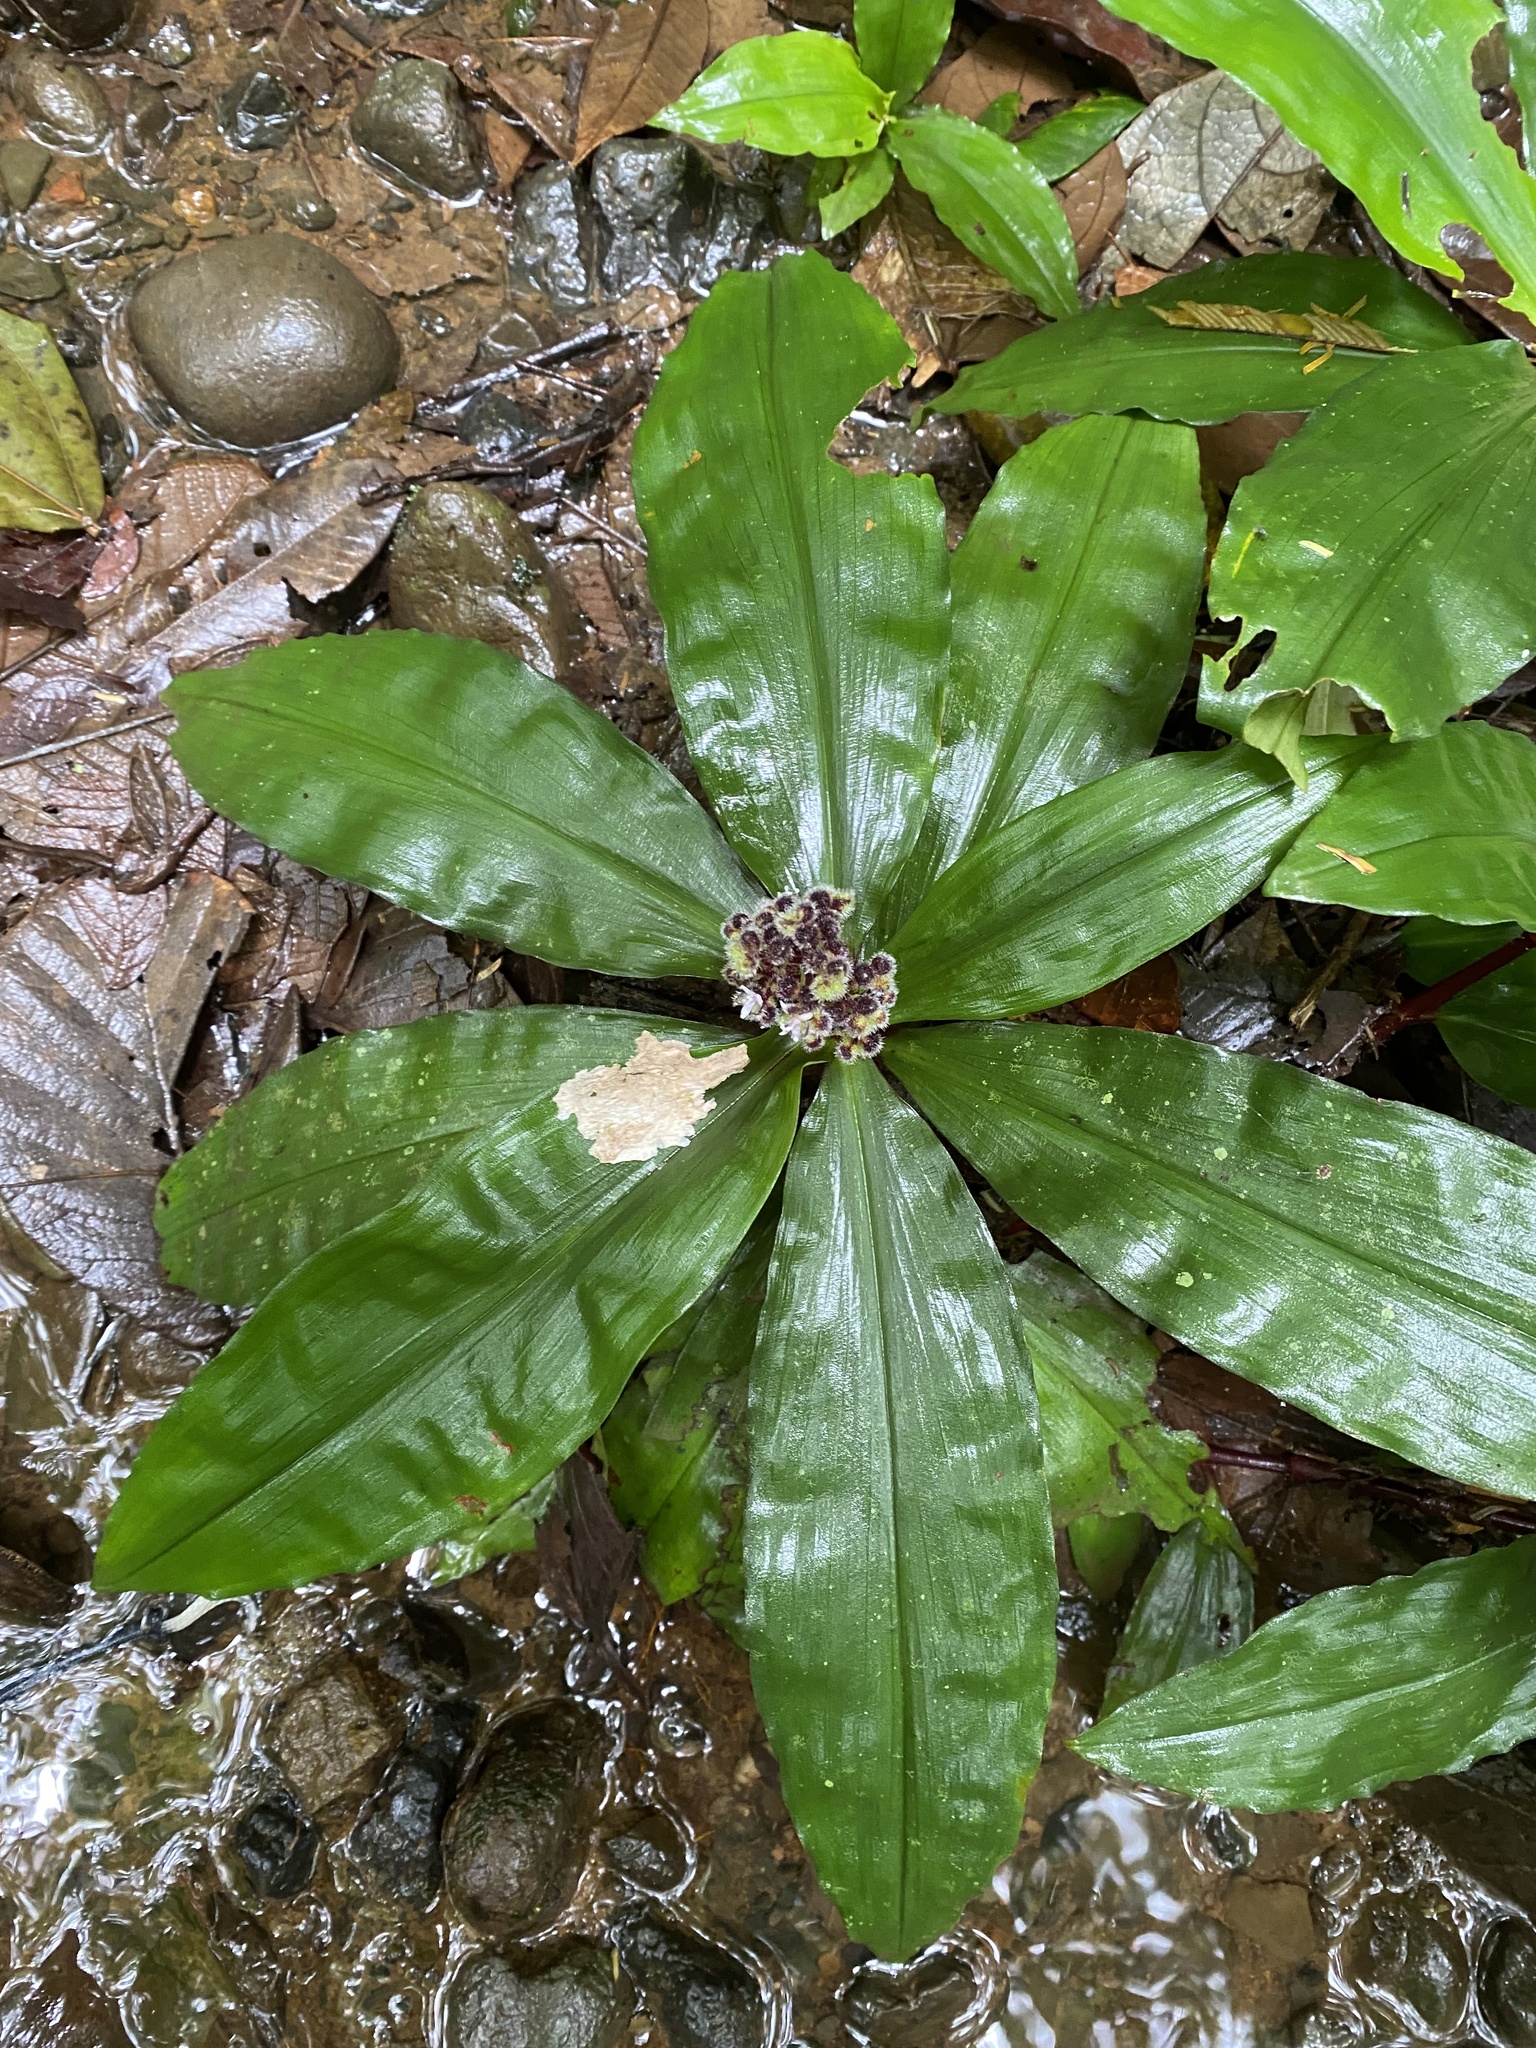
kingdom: Plantae
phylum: Tracheophyta
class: Liliopsida
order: Commelinales
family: Commelinaceae
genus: Floscopa
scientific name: Floscopa robusta
